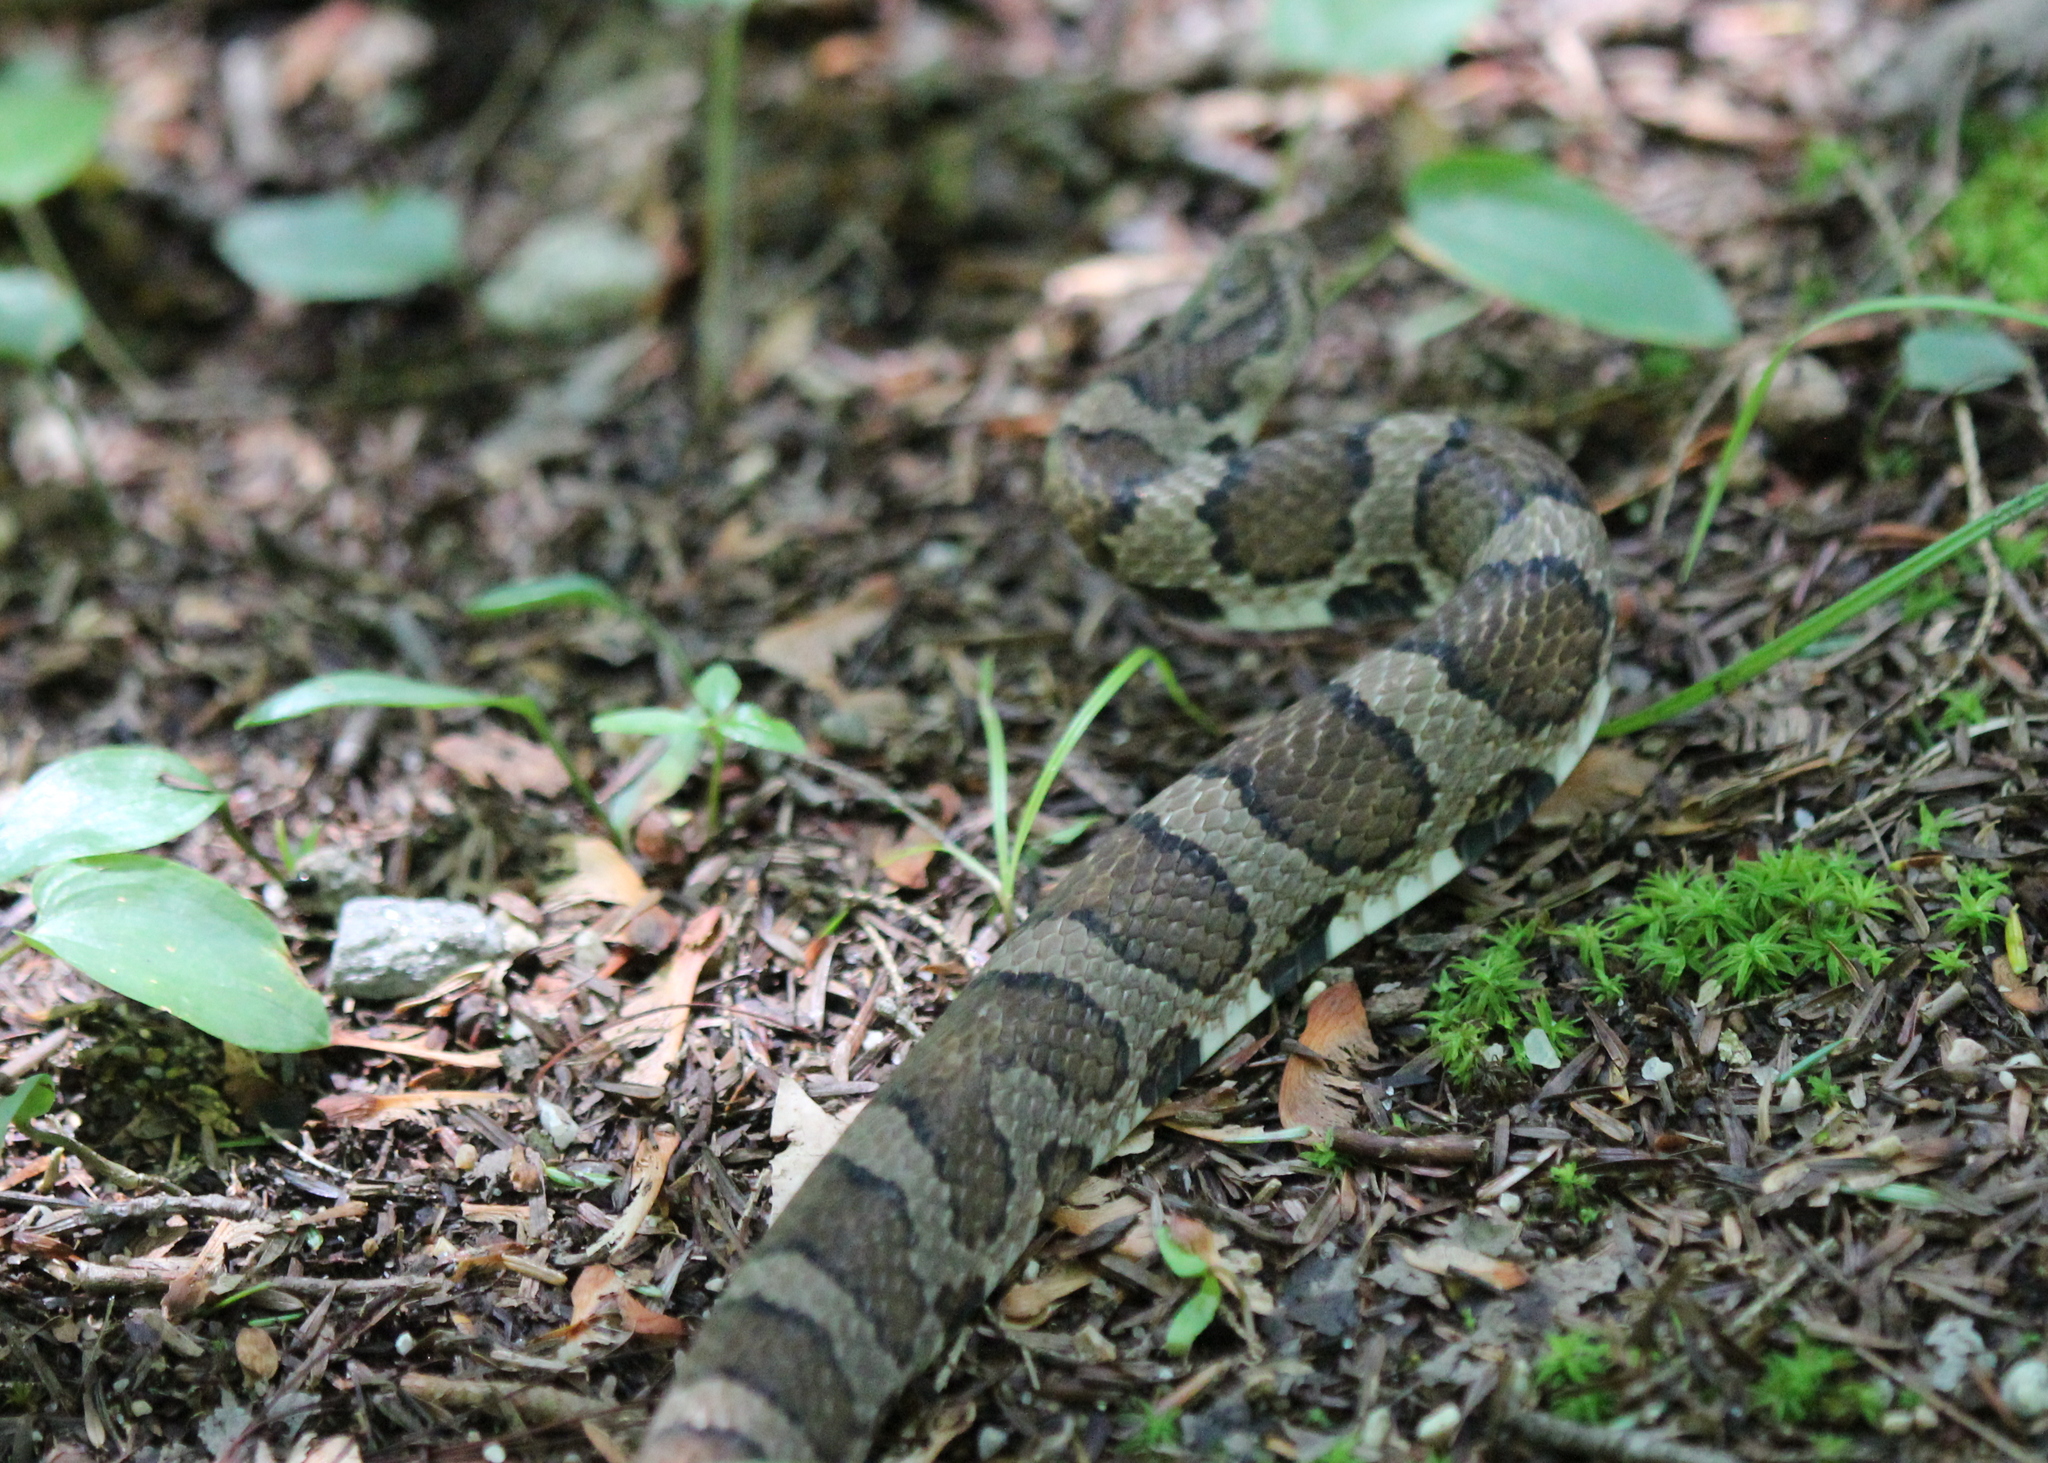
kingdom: Animalia
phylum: Chordata
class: Squamata
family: Colubridae
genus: Lampropeltis
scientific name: Lampropeltis triangulum
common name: Eastern milksnake
